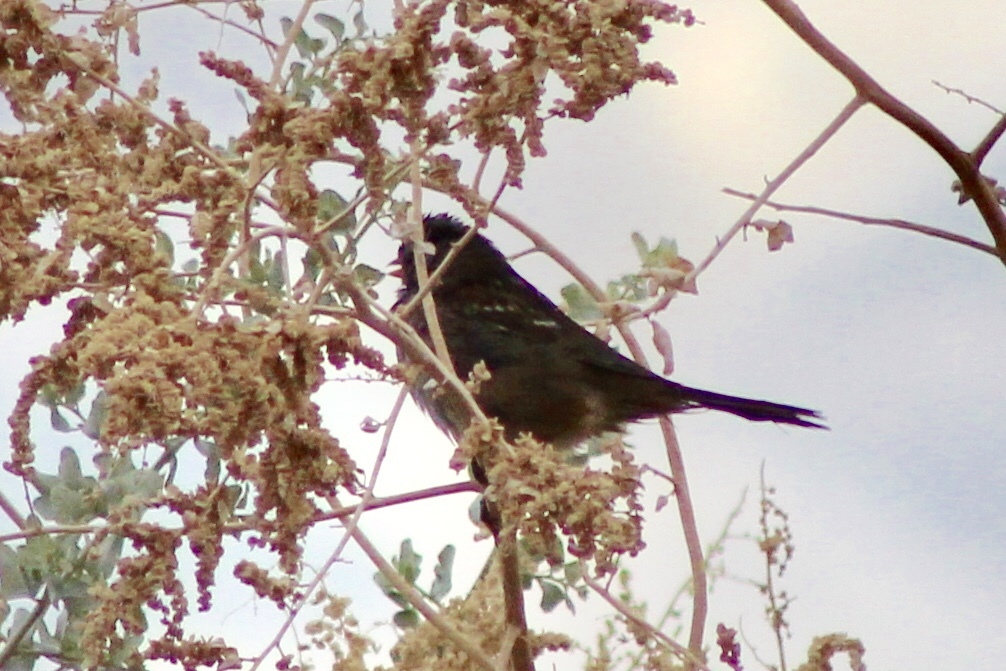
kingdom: Animalia
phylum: Chordata
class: Aves
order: Passeriformes
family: Passerellidae
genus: Zonotrichia
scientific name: Zonotrichia leucophrys
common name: White-crowned sparrow
